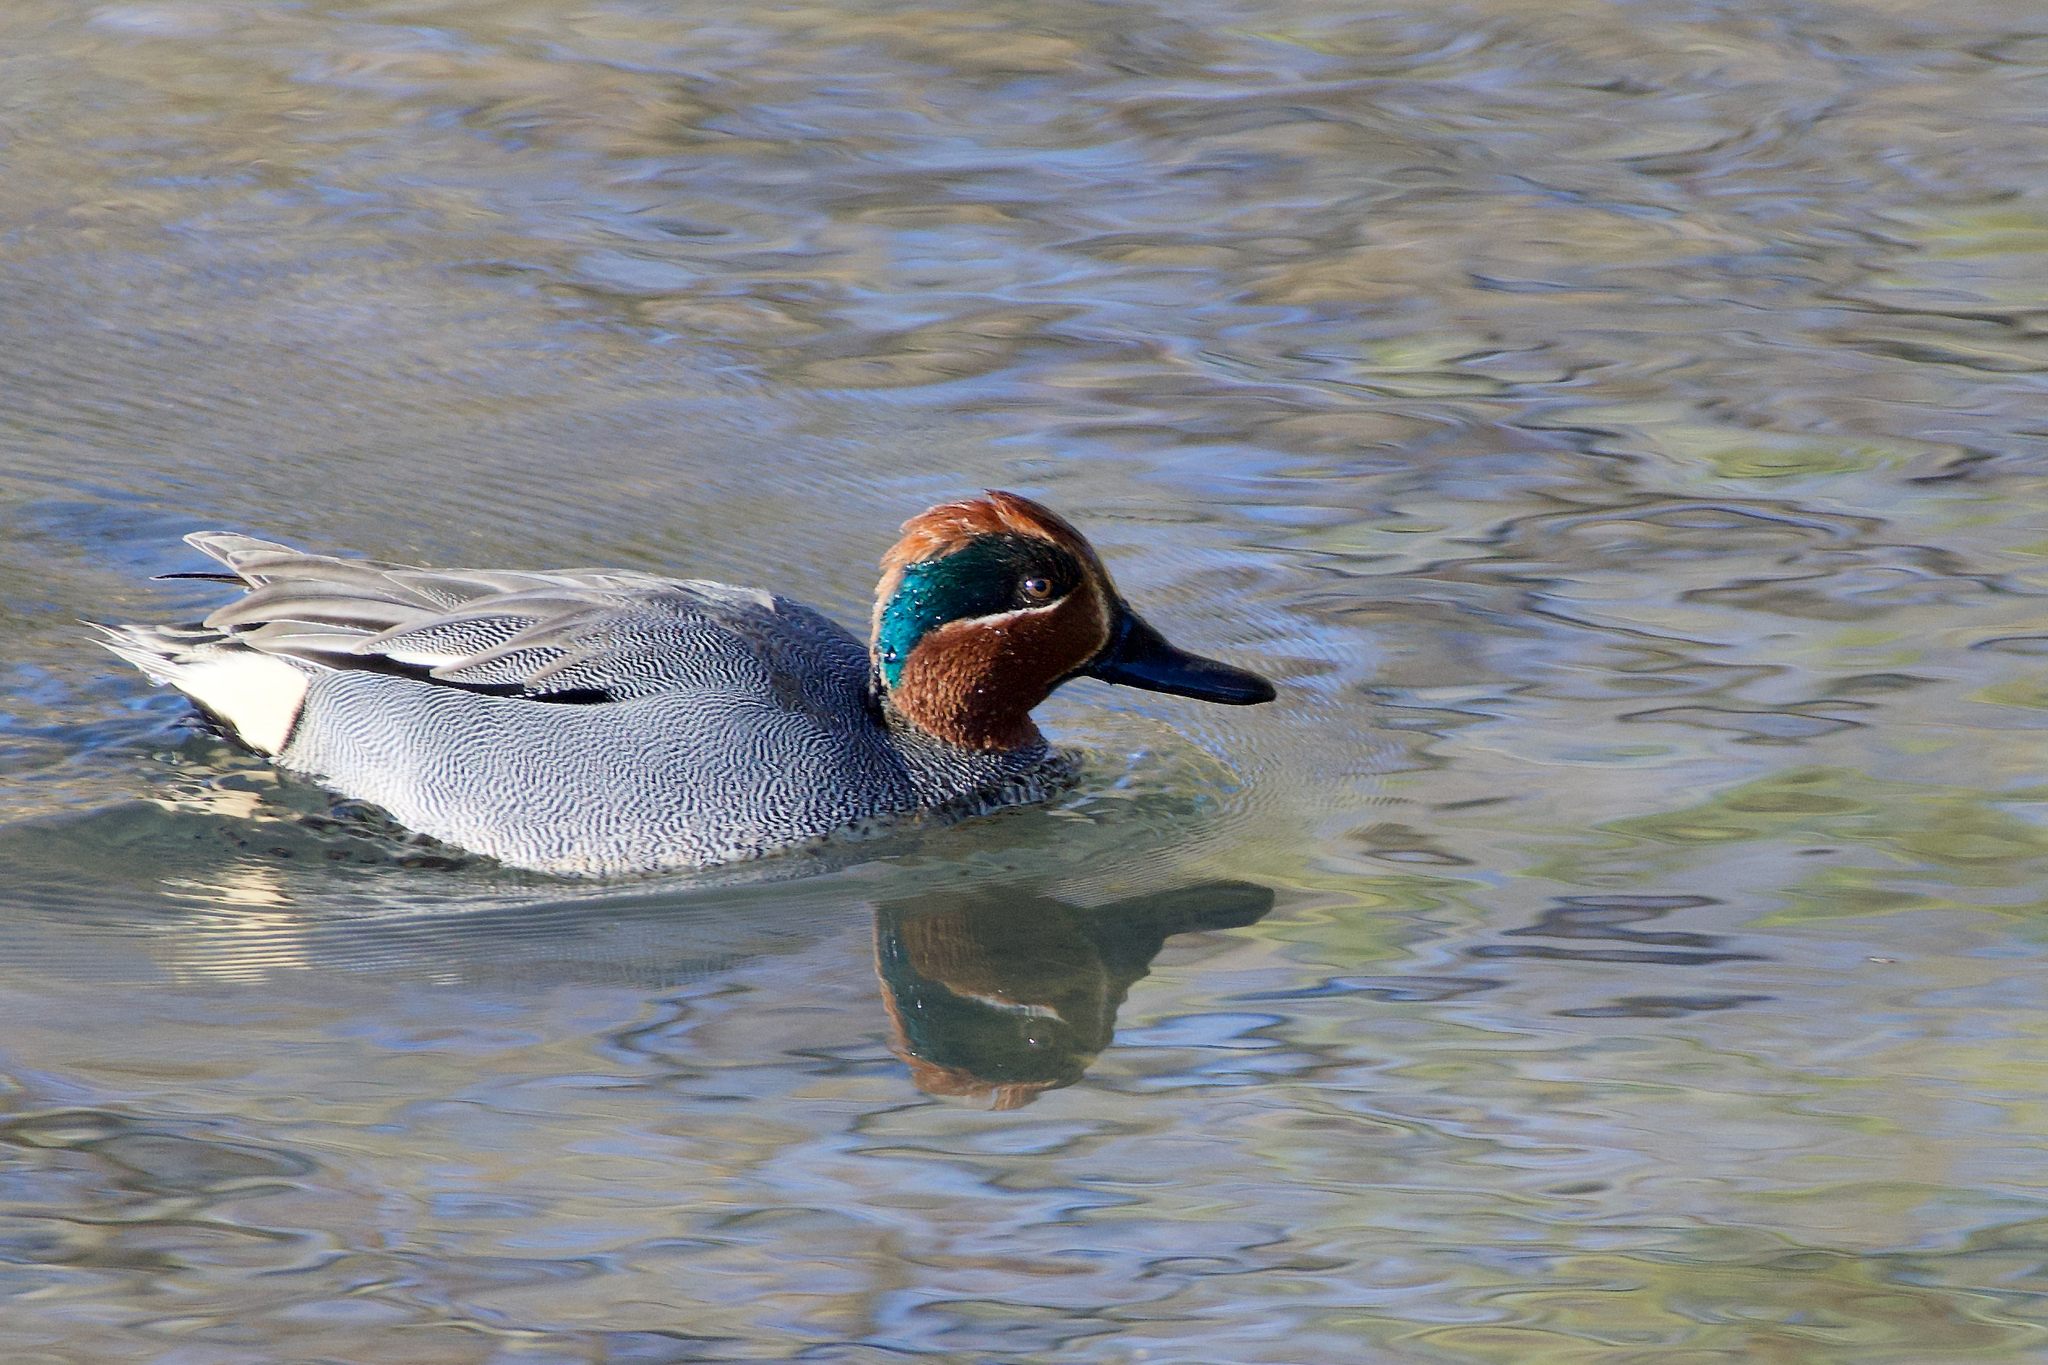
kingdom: Animalia
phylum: Chordata
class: Aves
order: Anseriformes
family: Anatidae
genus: Anas
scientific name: Anas crecca
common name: Eurasian teal
